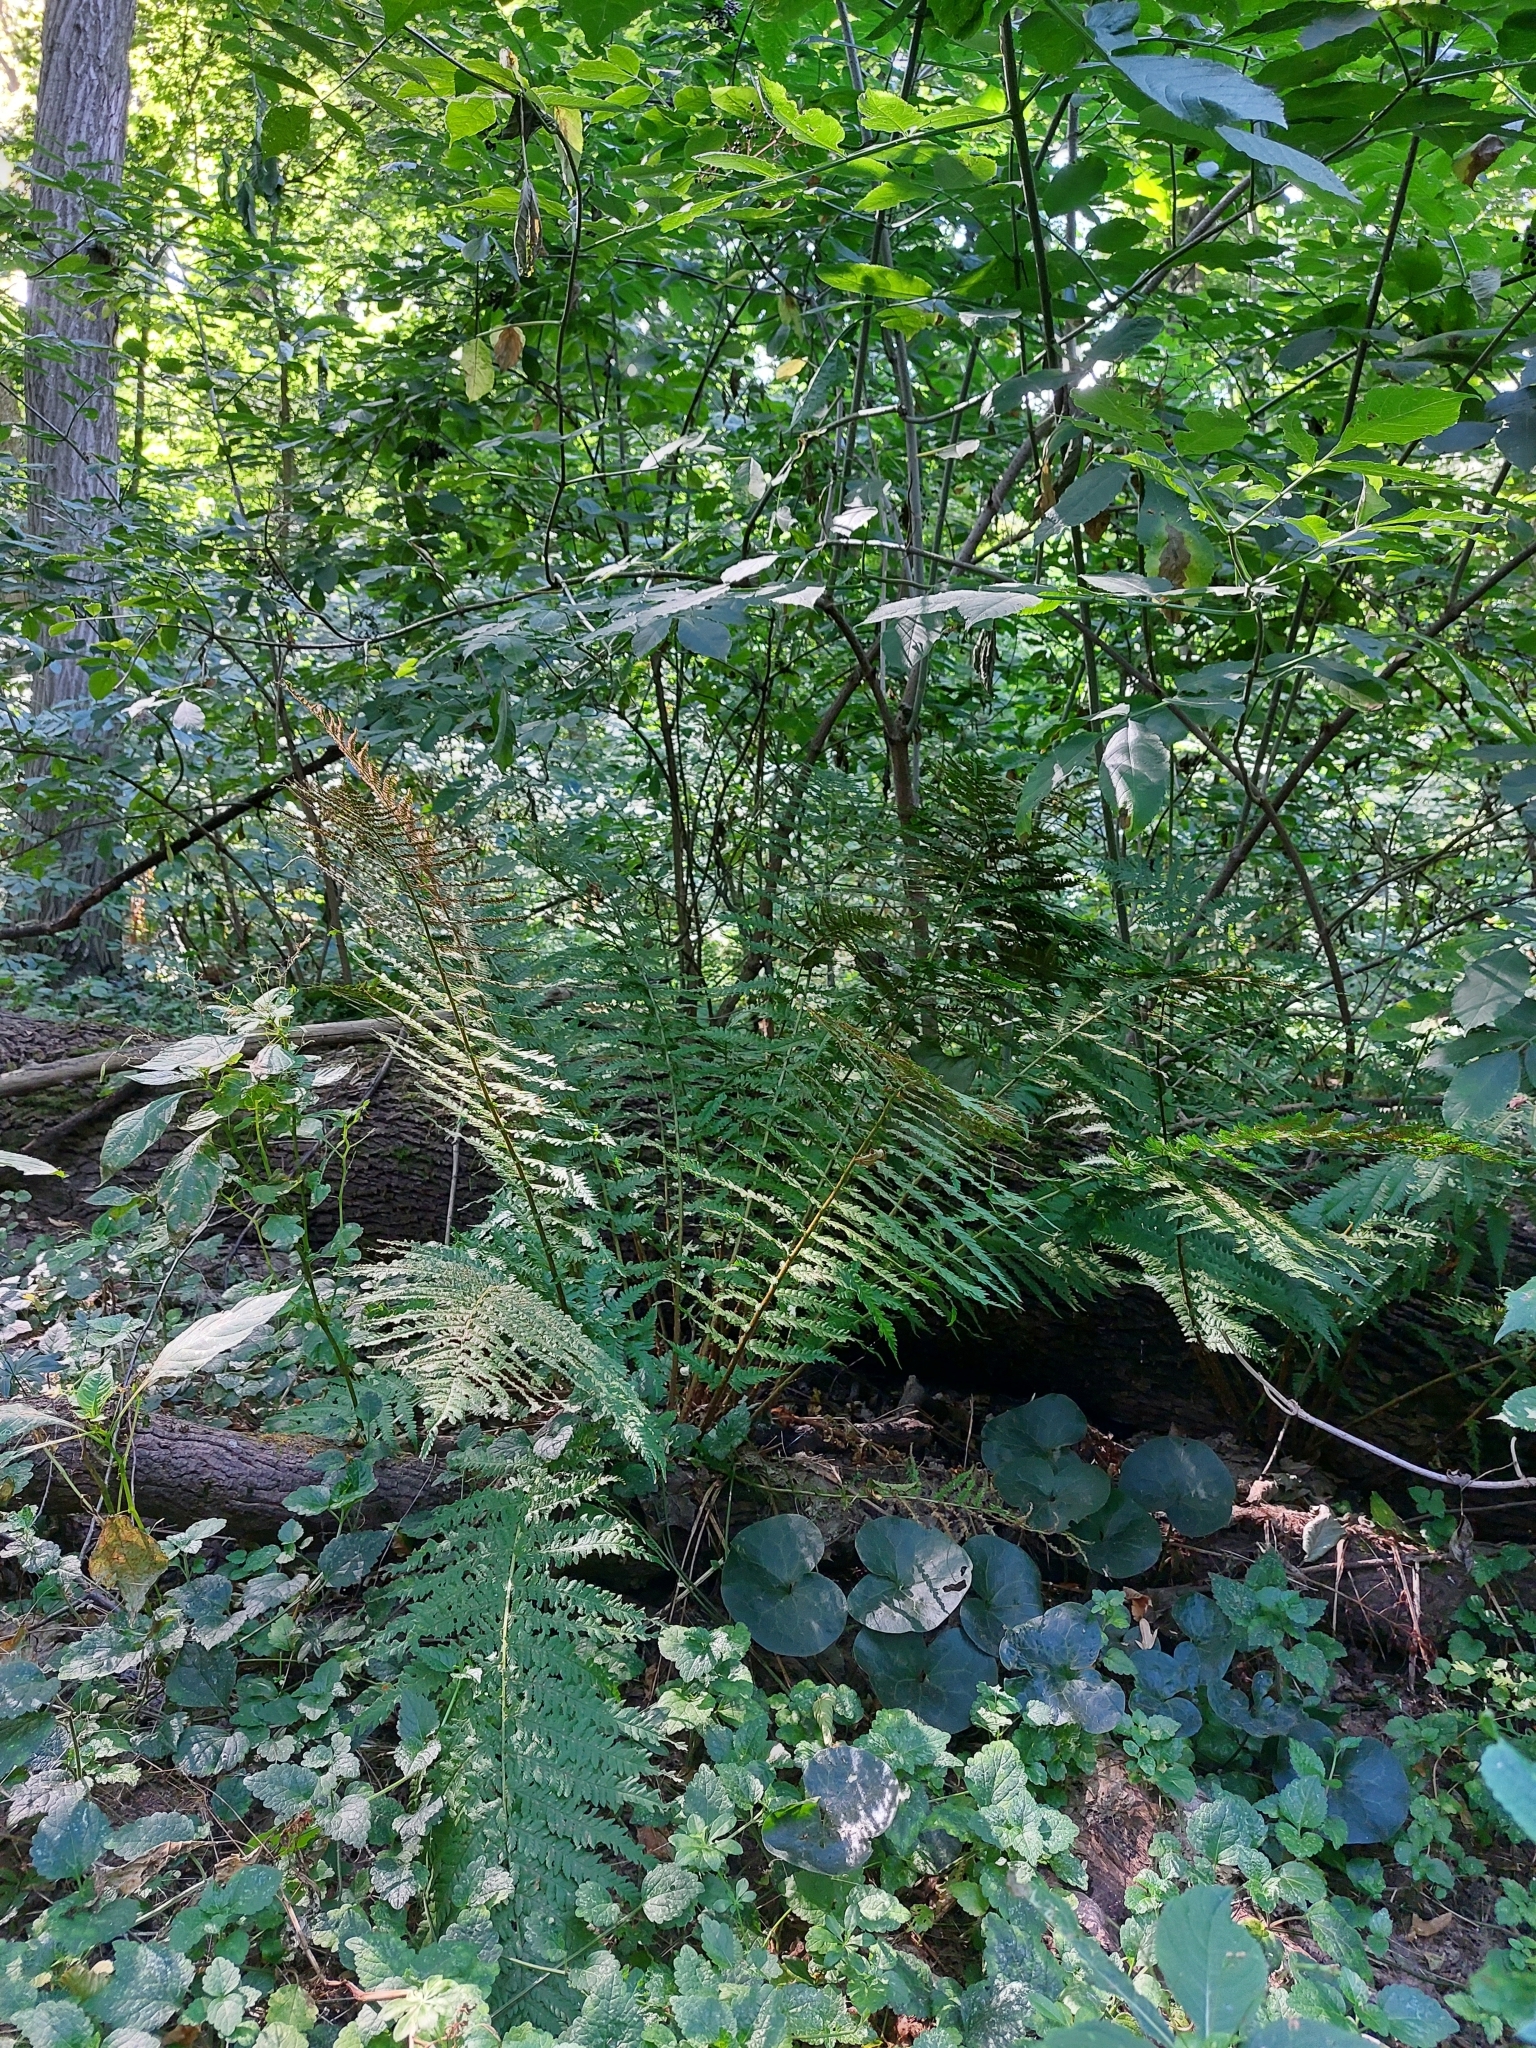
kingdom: Plantae
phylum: Tracheophyta
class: Polypodiopsida
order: Polypodiales
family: Dryopteridaceae
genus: Dryopteris
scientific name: Dryopteris filix-mas
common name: Male fern
